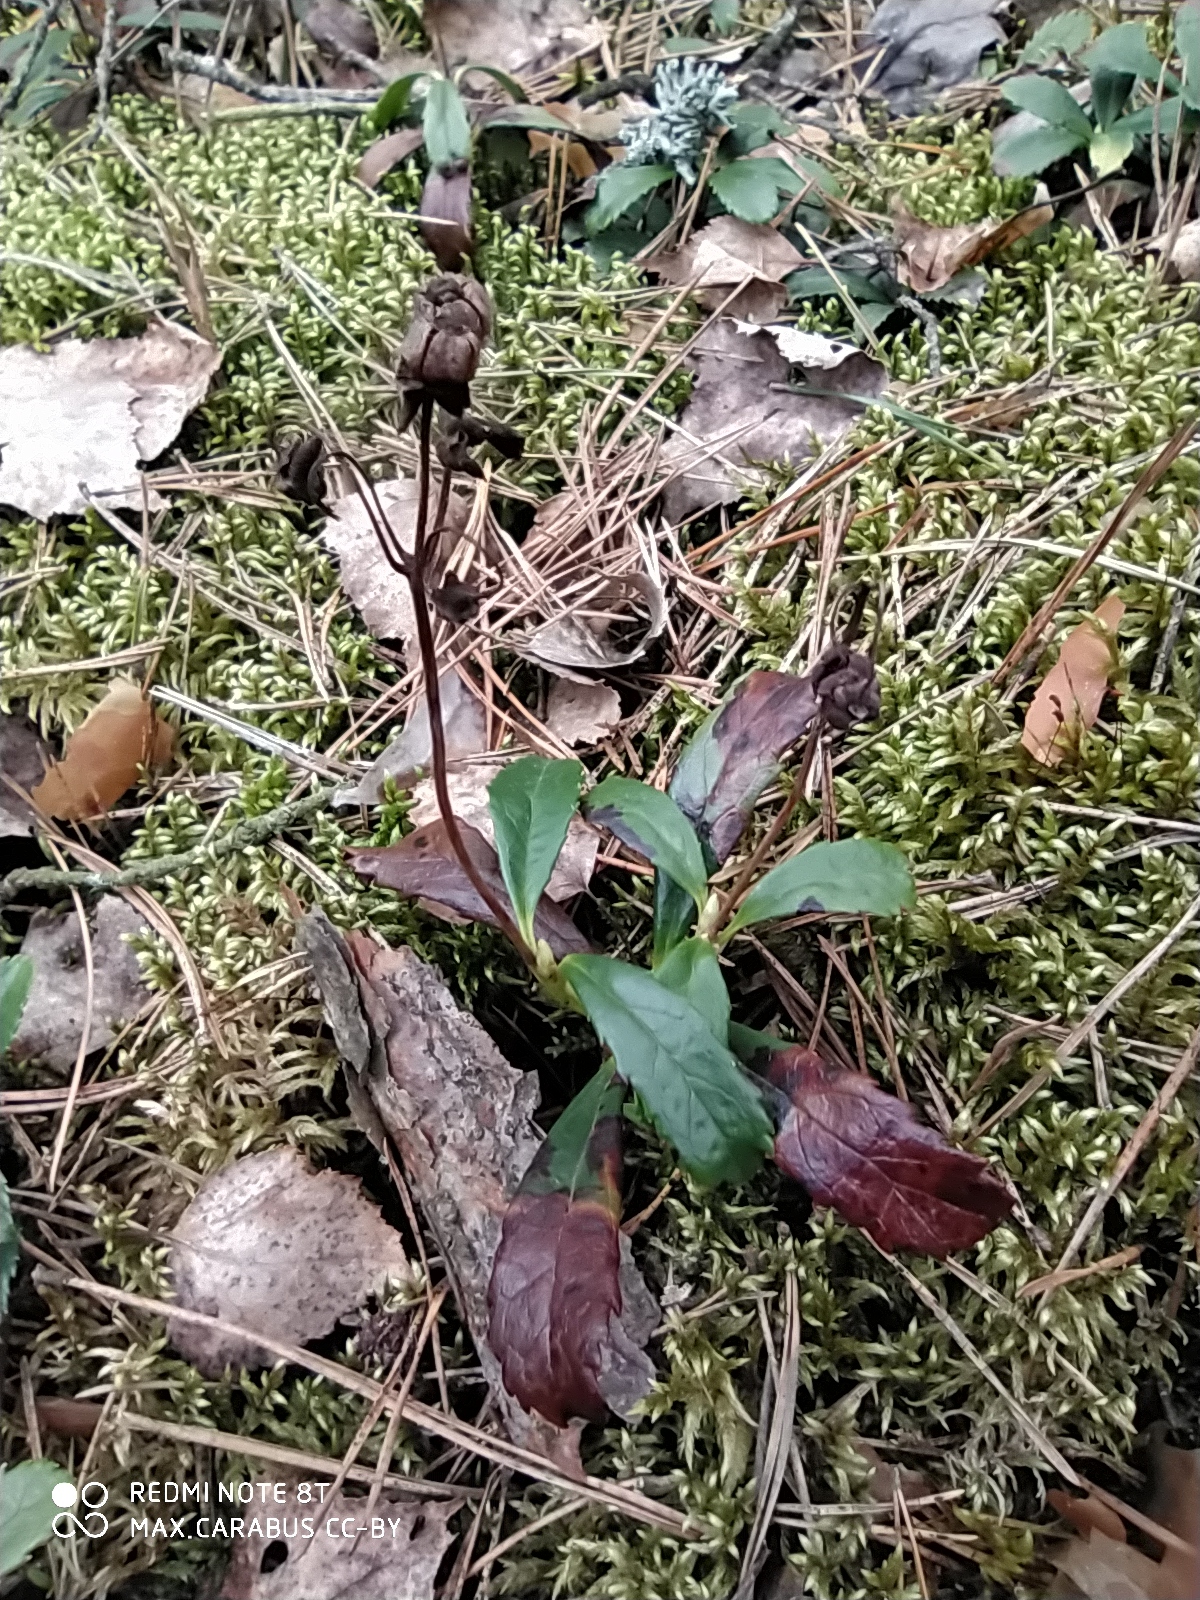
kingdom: Plantae
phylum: Tracheophyta
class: Magnoliopsida
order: Ericales
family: Ericaceae
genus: Chimaphila
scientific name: Chimaphila umbellata
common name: Pipsissewa
